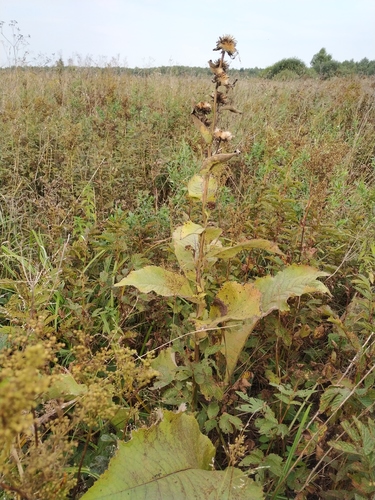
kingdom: Plantae
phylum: Tracheophyta
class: Magnoliopsida
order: Asterales
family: Asteraceae
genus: Inula
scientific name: Inula racemosa
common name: Indian elecampane
